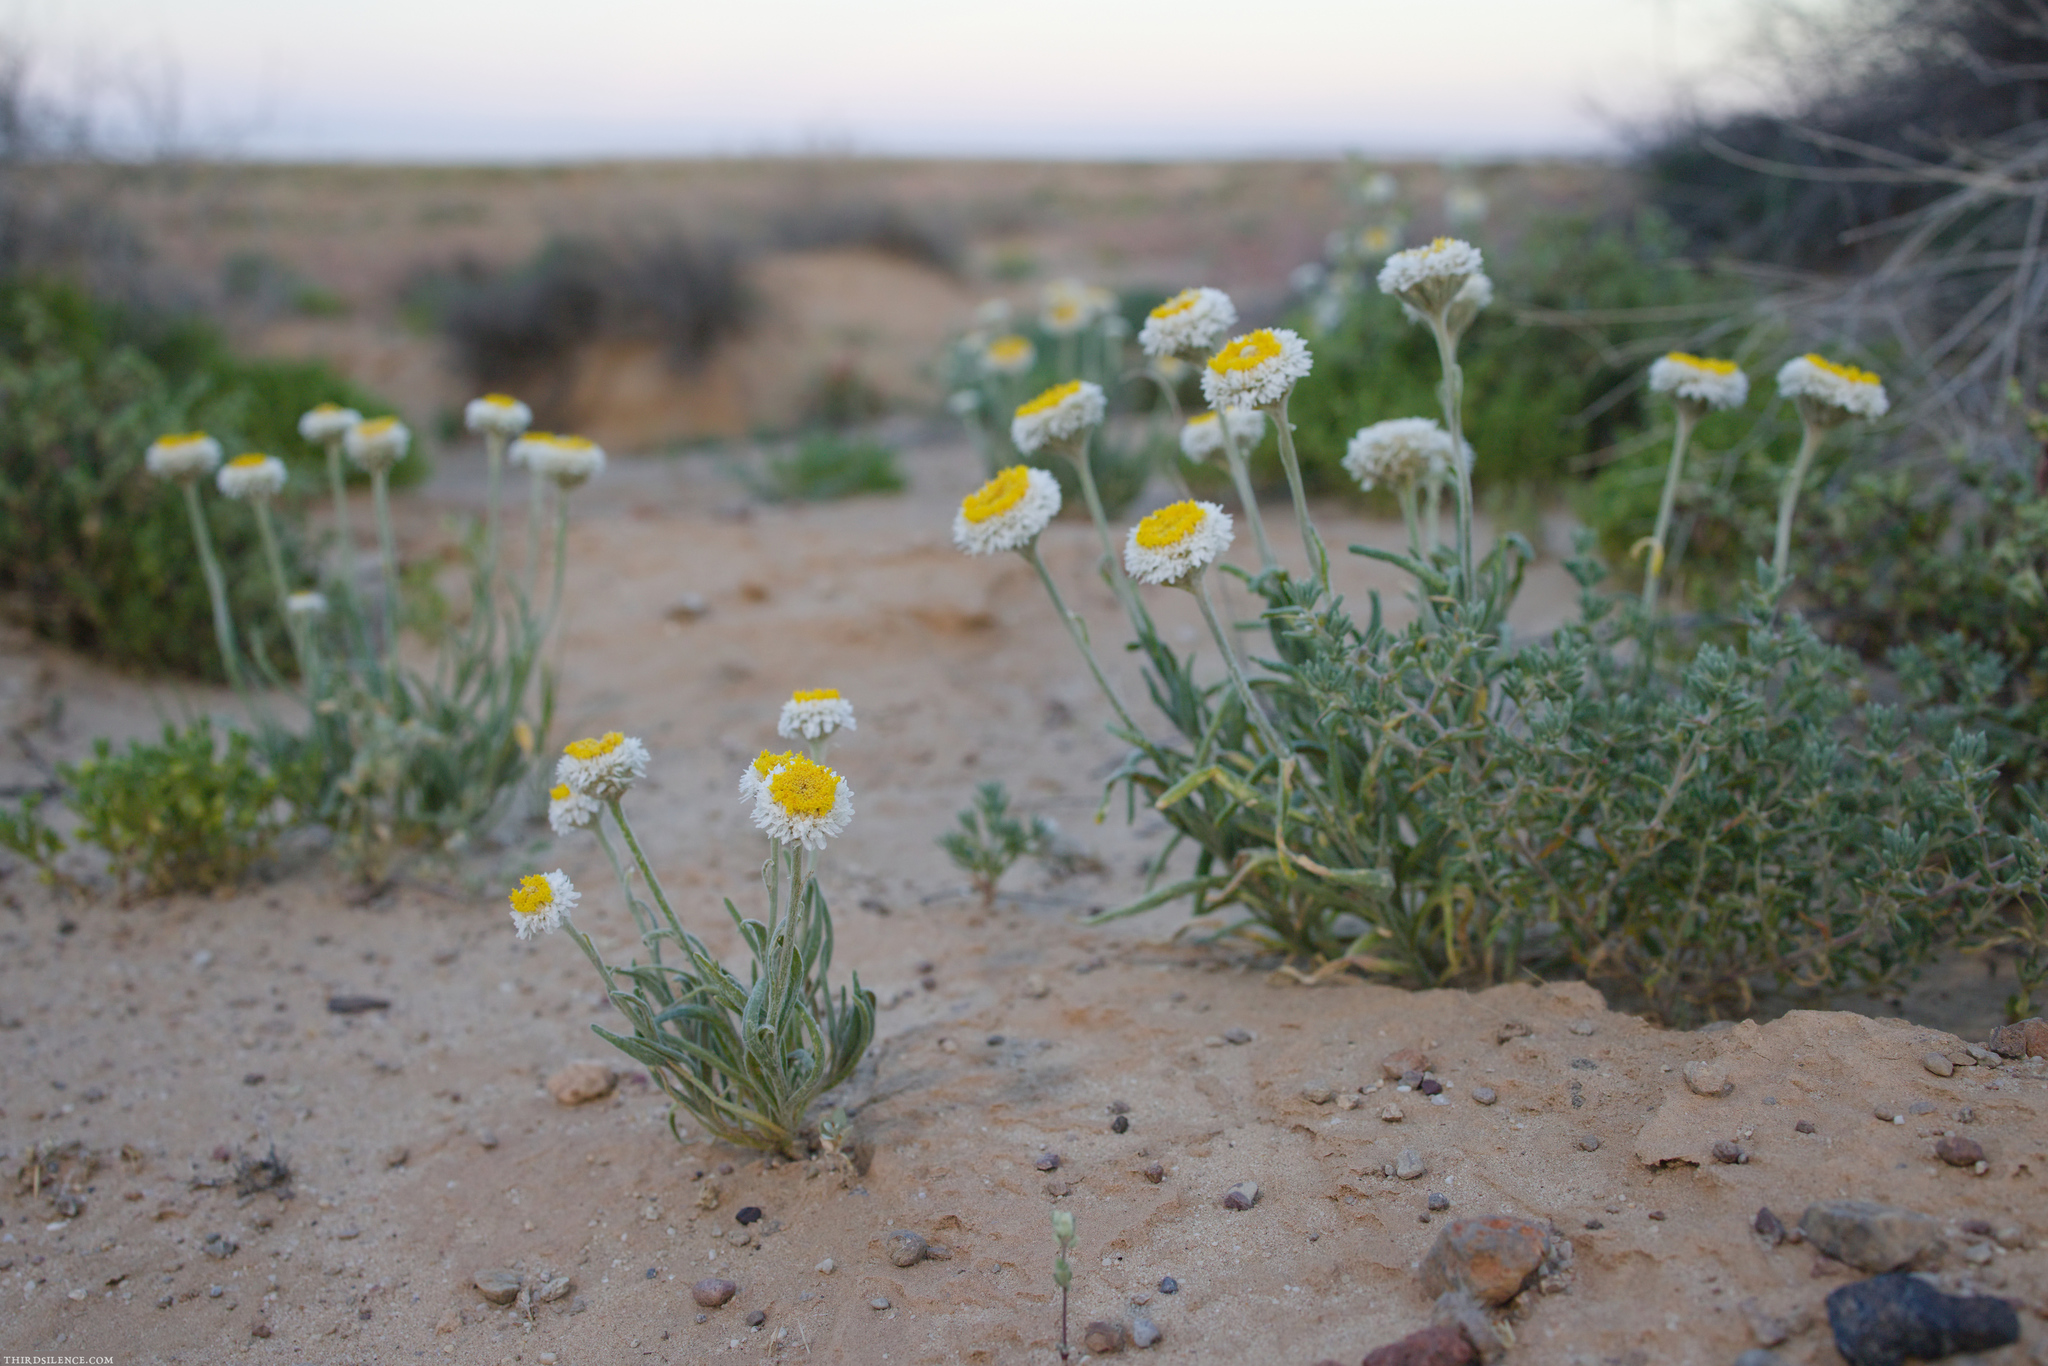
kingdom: Plantae
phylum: Tracheophyta
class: Magnoliopsida
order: Asterales
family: Asteraceae
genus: Polycalymma
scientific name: Polycalymma stuartii
